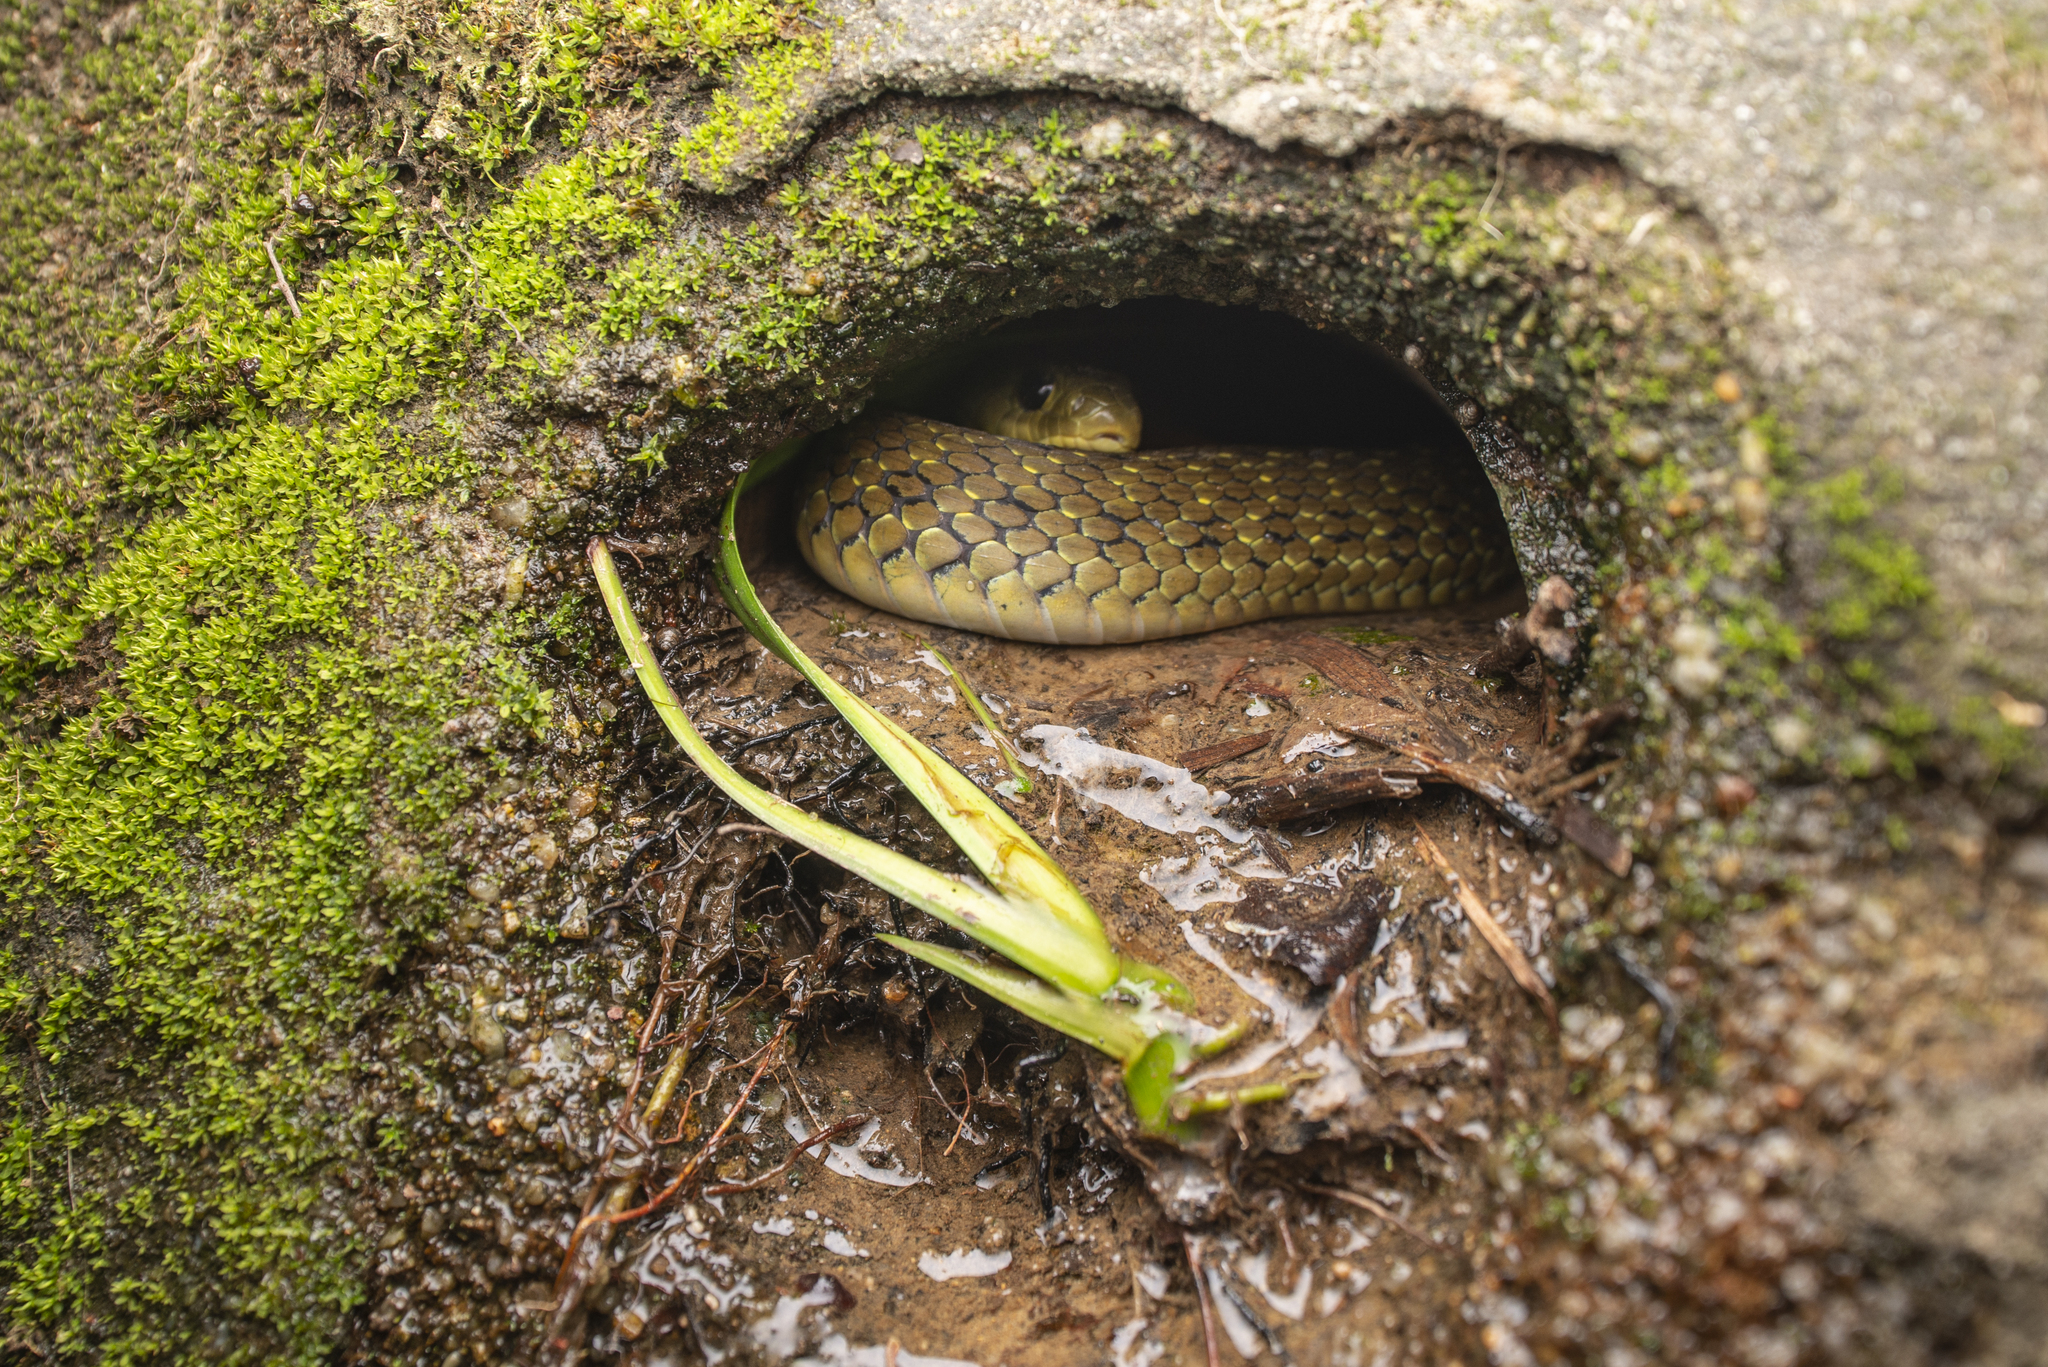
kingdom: Animalia
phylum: Chordata
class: Squamata
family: Colubridae
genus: Rhabdophis
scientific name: Rhabdophis helleri
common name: Heller’s red-necked keelback
